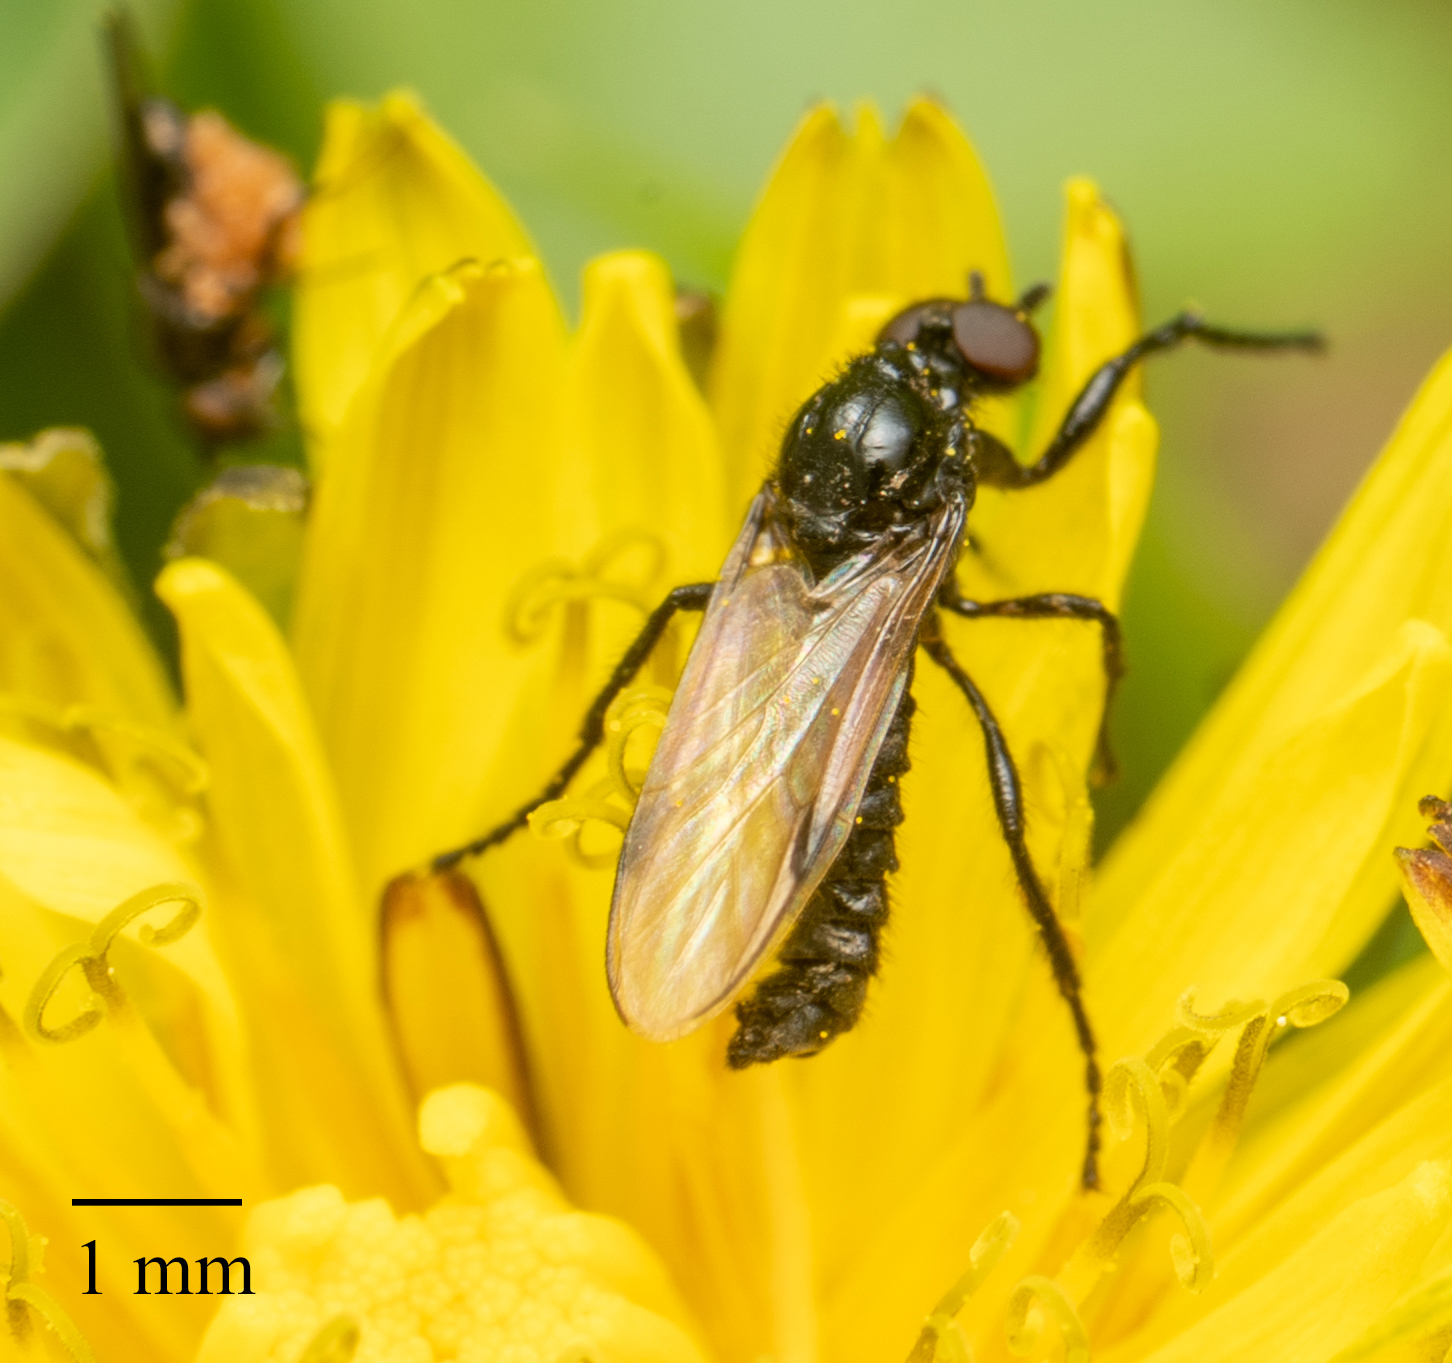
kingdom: Animalia
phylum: Arthropoda
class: Insecta
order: Diptera
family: Bibionidae
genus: Dilophus
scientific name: Dilophus orbatus
